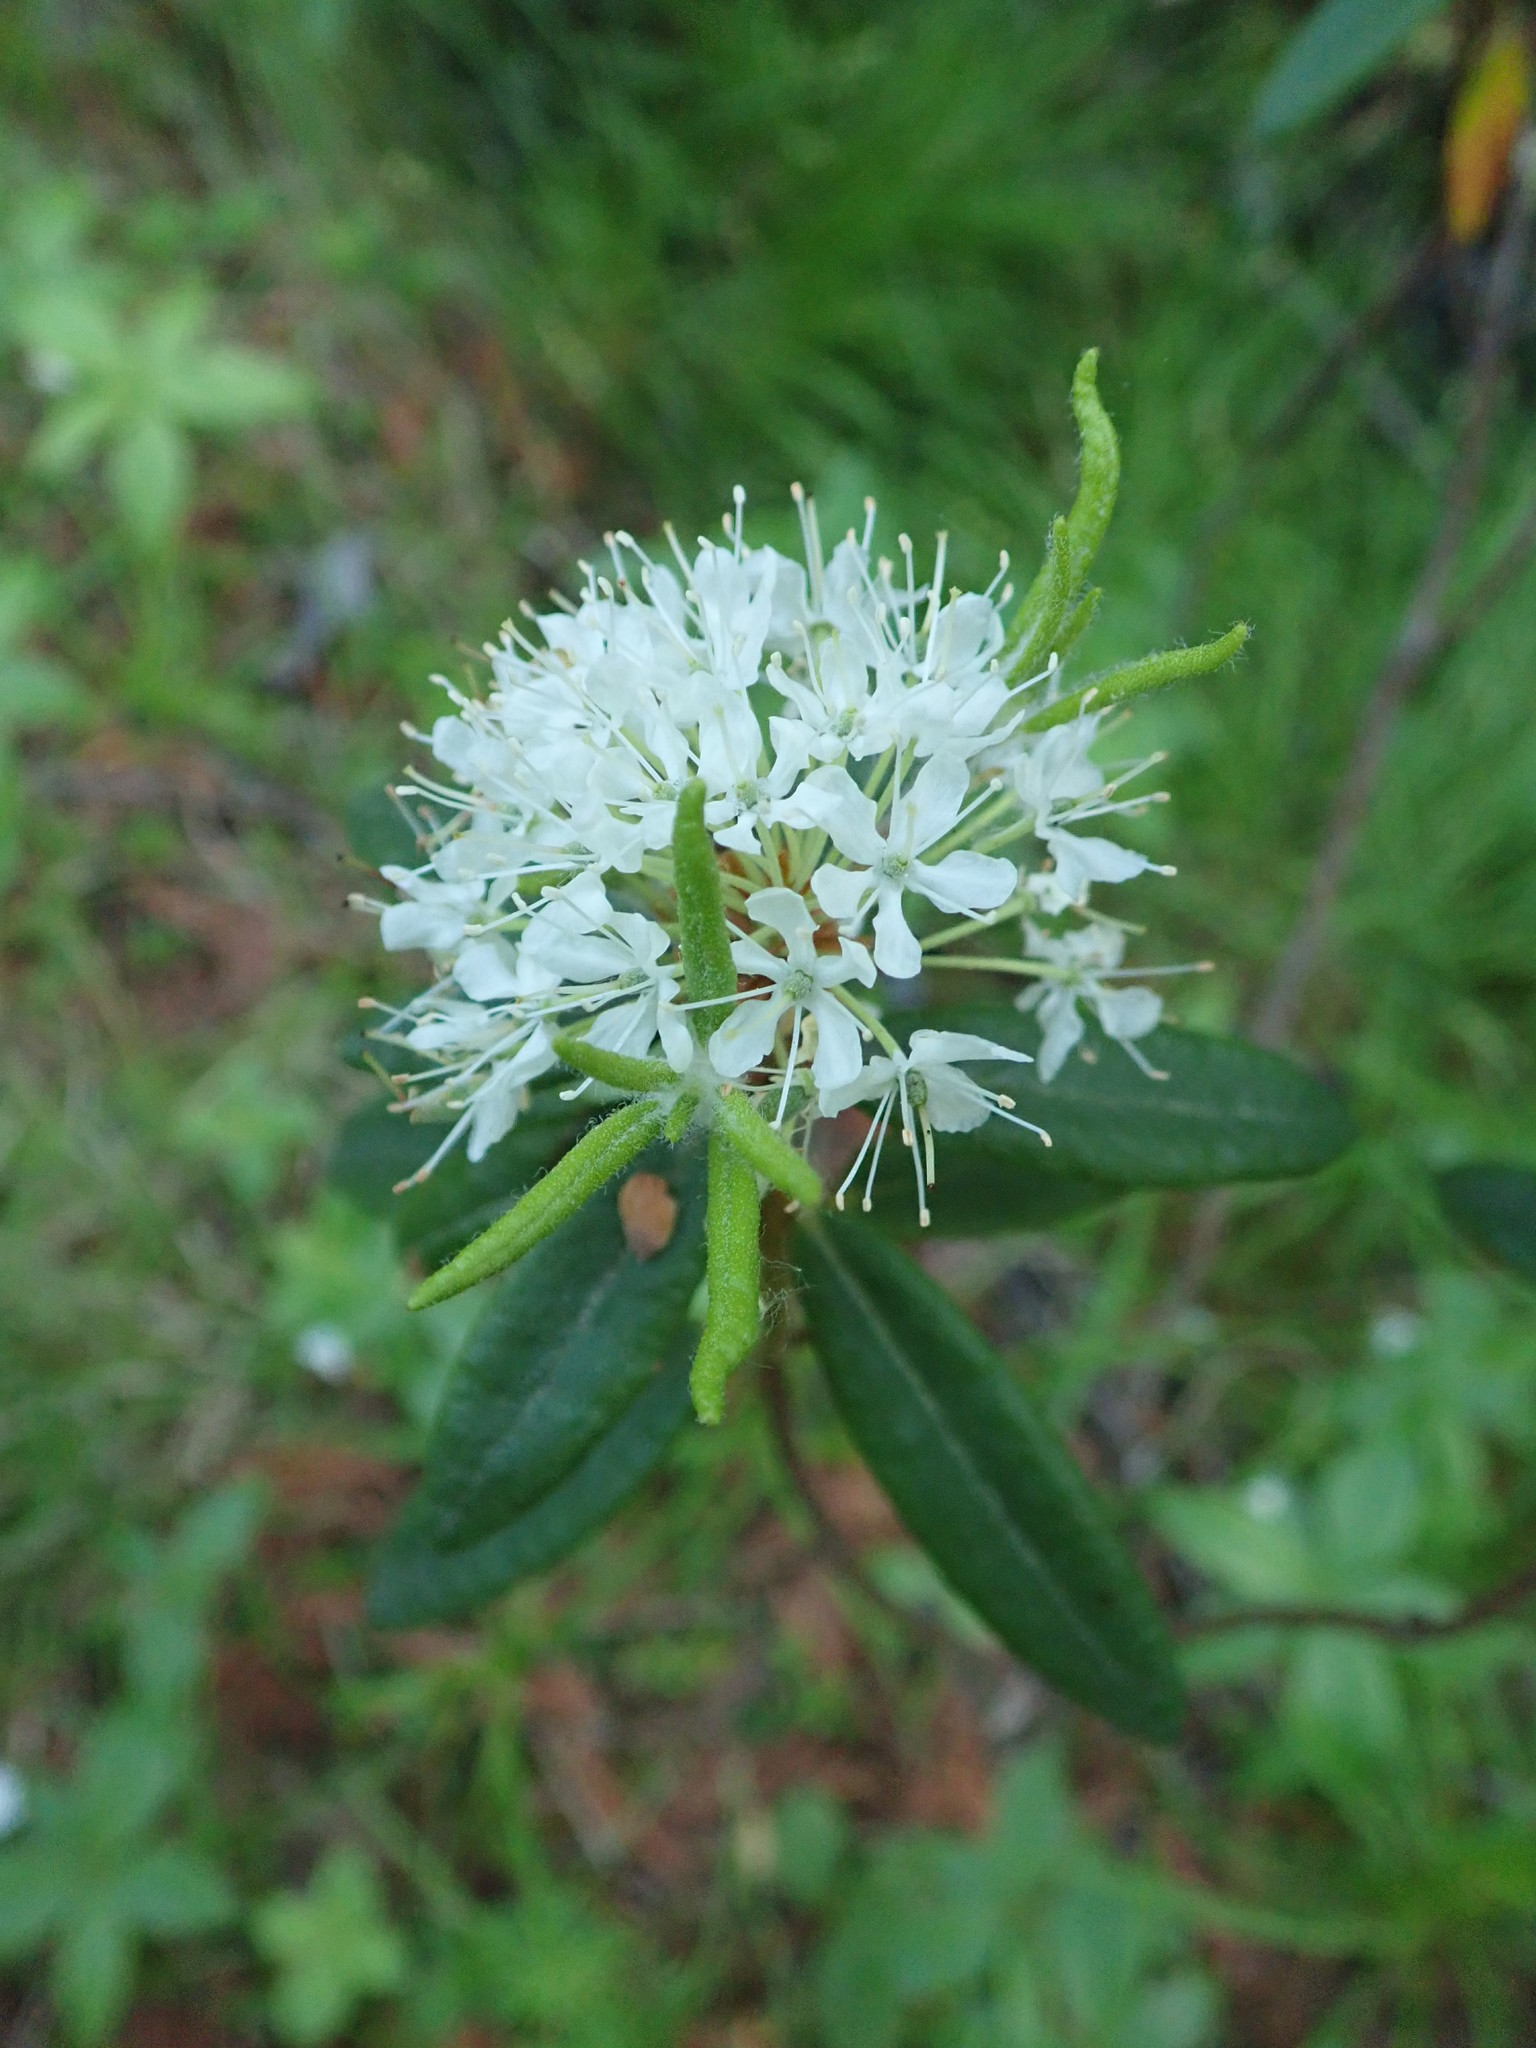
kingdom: Plantae
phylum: Tracheophyta
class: Magnoliopsida
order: Ericales
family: Ericaceae
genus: Rhododendron
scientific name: Rhododendron groenlandicum
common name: Bog labrador tea
